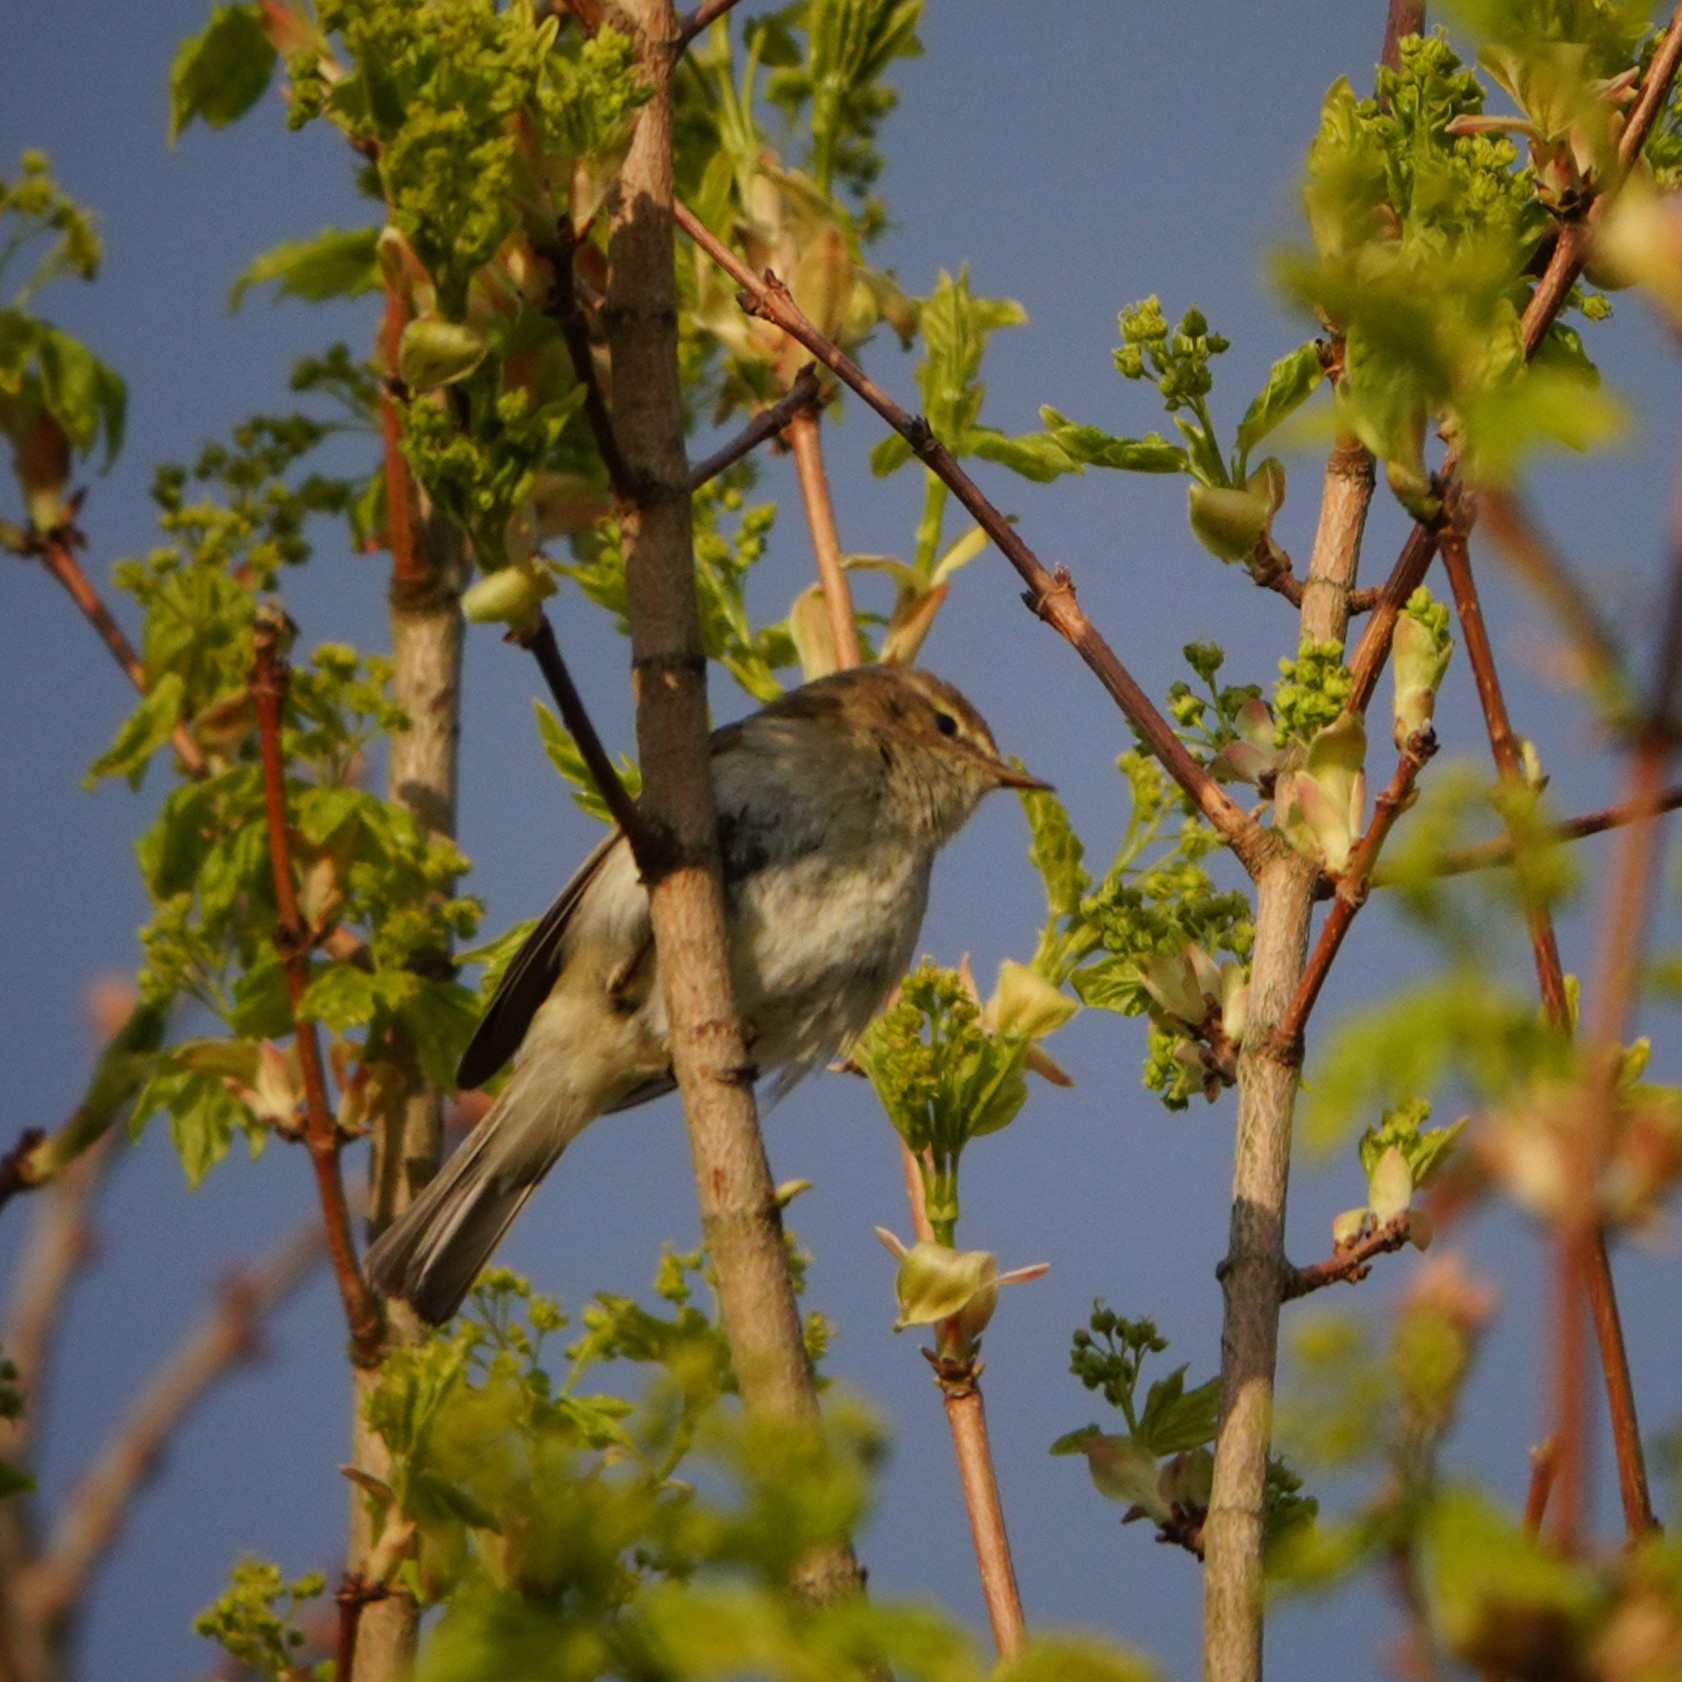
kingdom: Animalia
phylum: Chordata
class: Aves
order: Passeriformes
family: Phylloscopidae
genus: Phylloscopus
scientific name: Phylloscopus collybita
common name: Common chiffchaff
